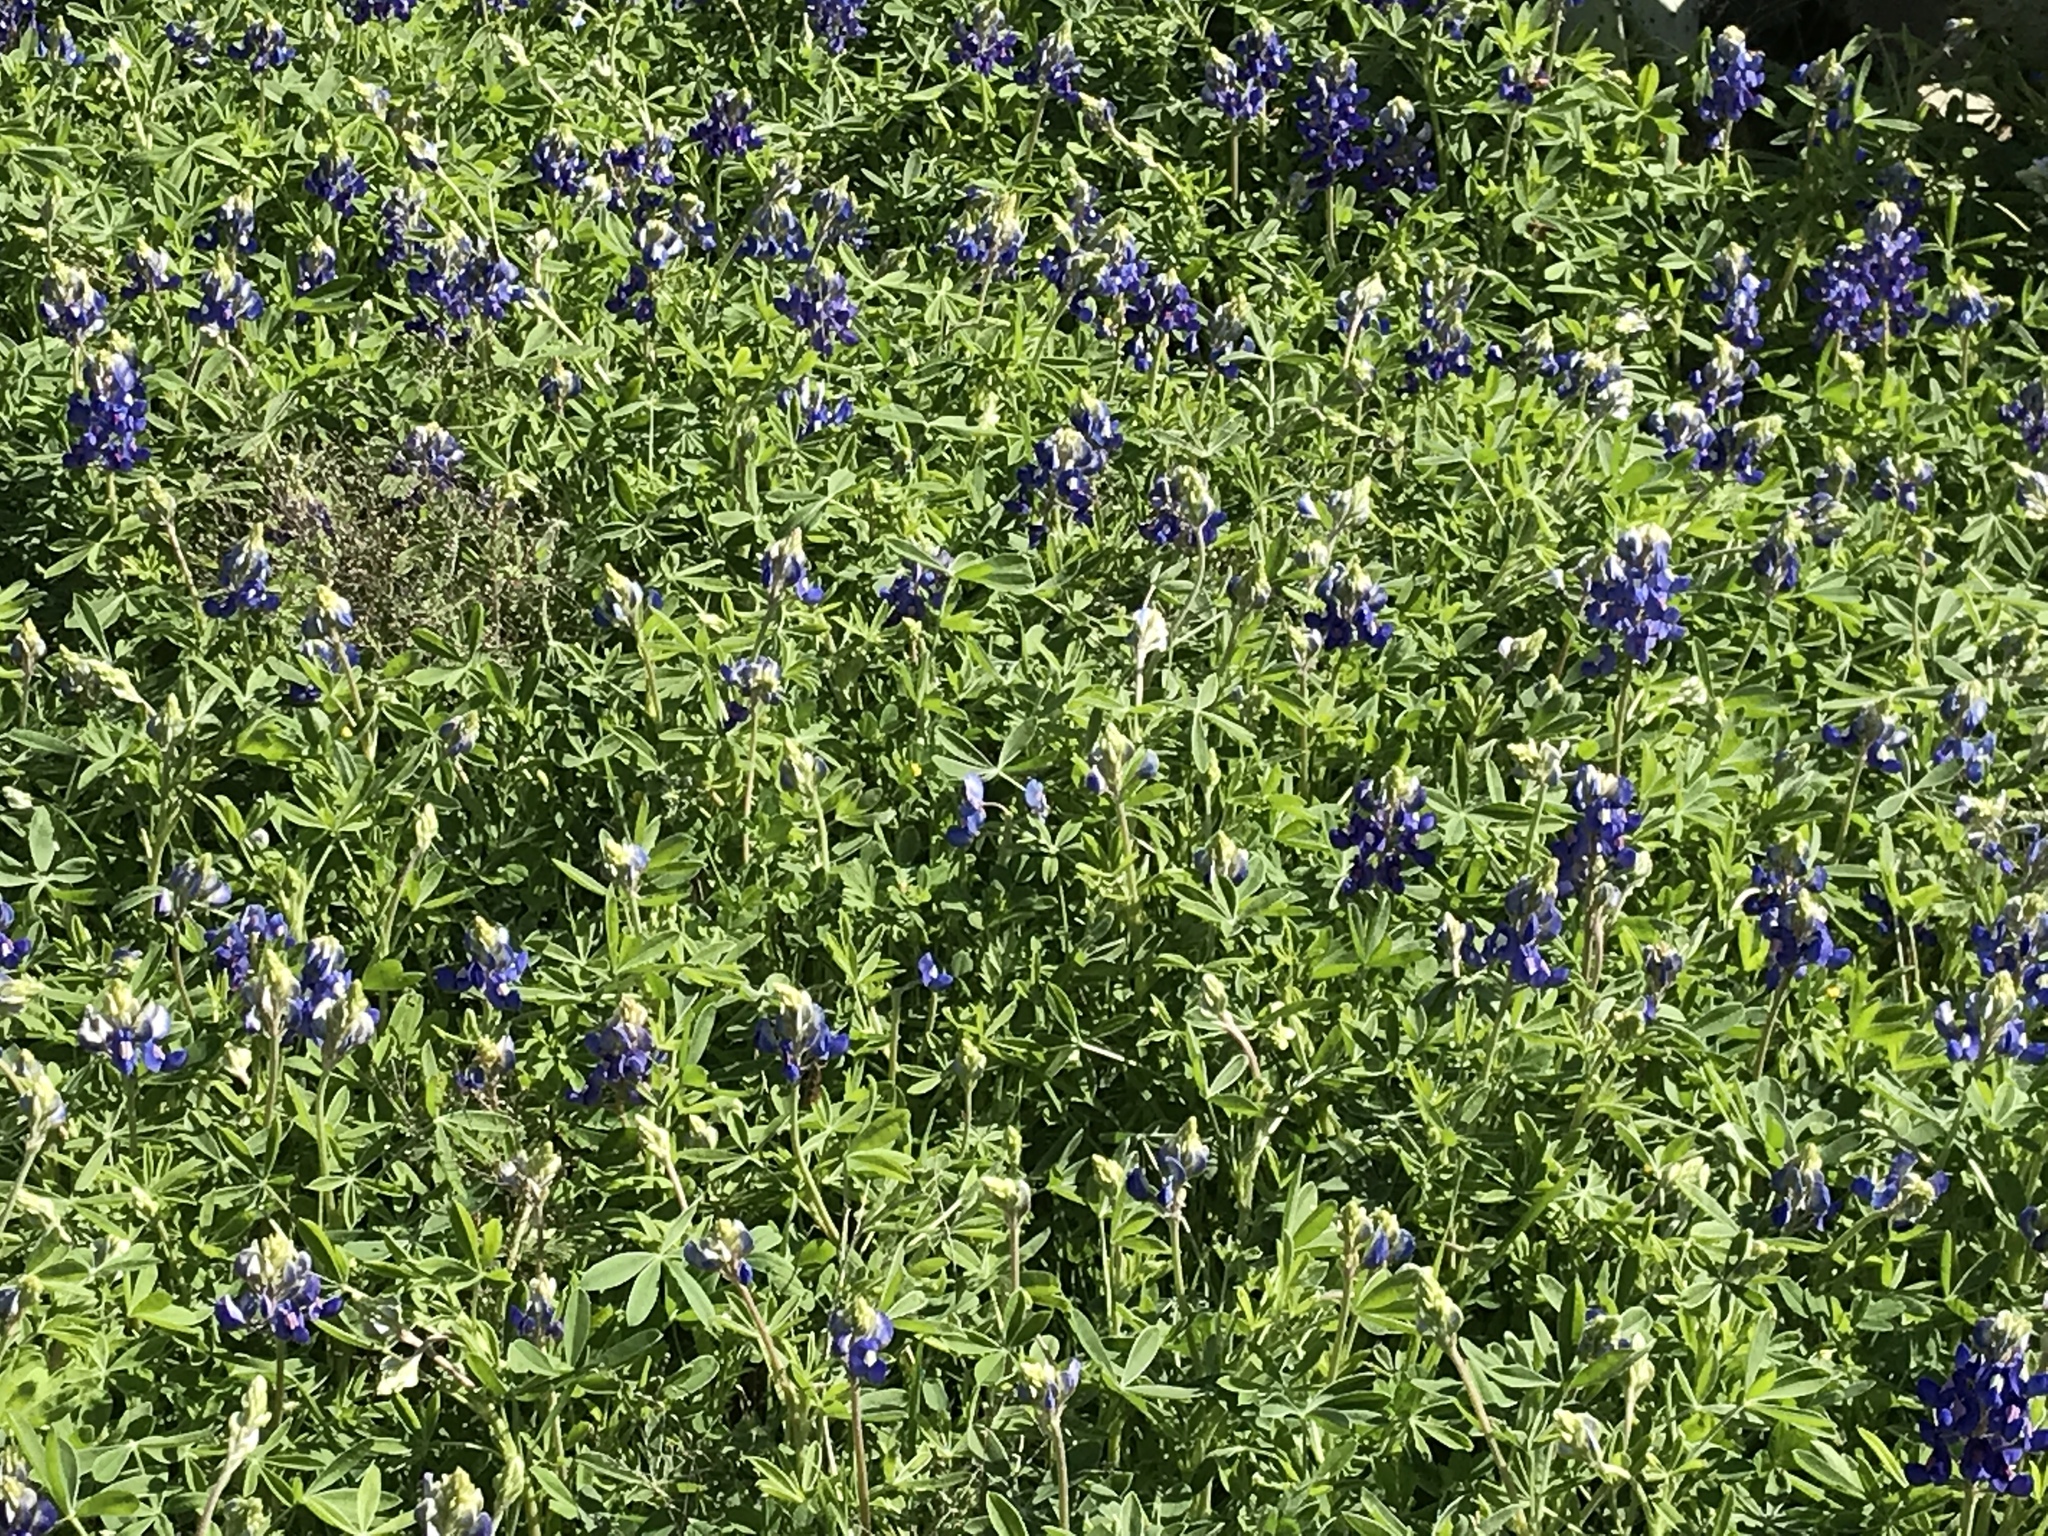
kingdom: Plantae
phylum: Tracheophyta
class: Magnoliopsida
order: Fabales
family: Fabaceae
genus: Lupinus
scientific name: Lupinus texensis
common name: Texas bluebonnet
